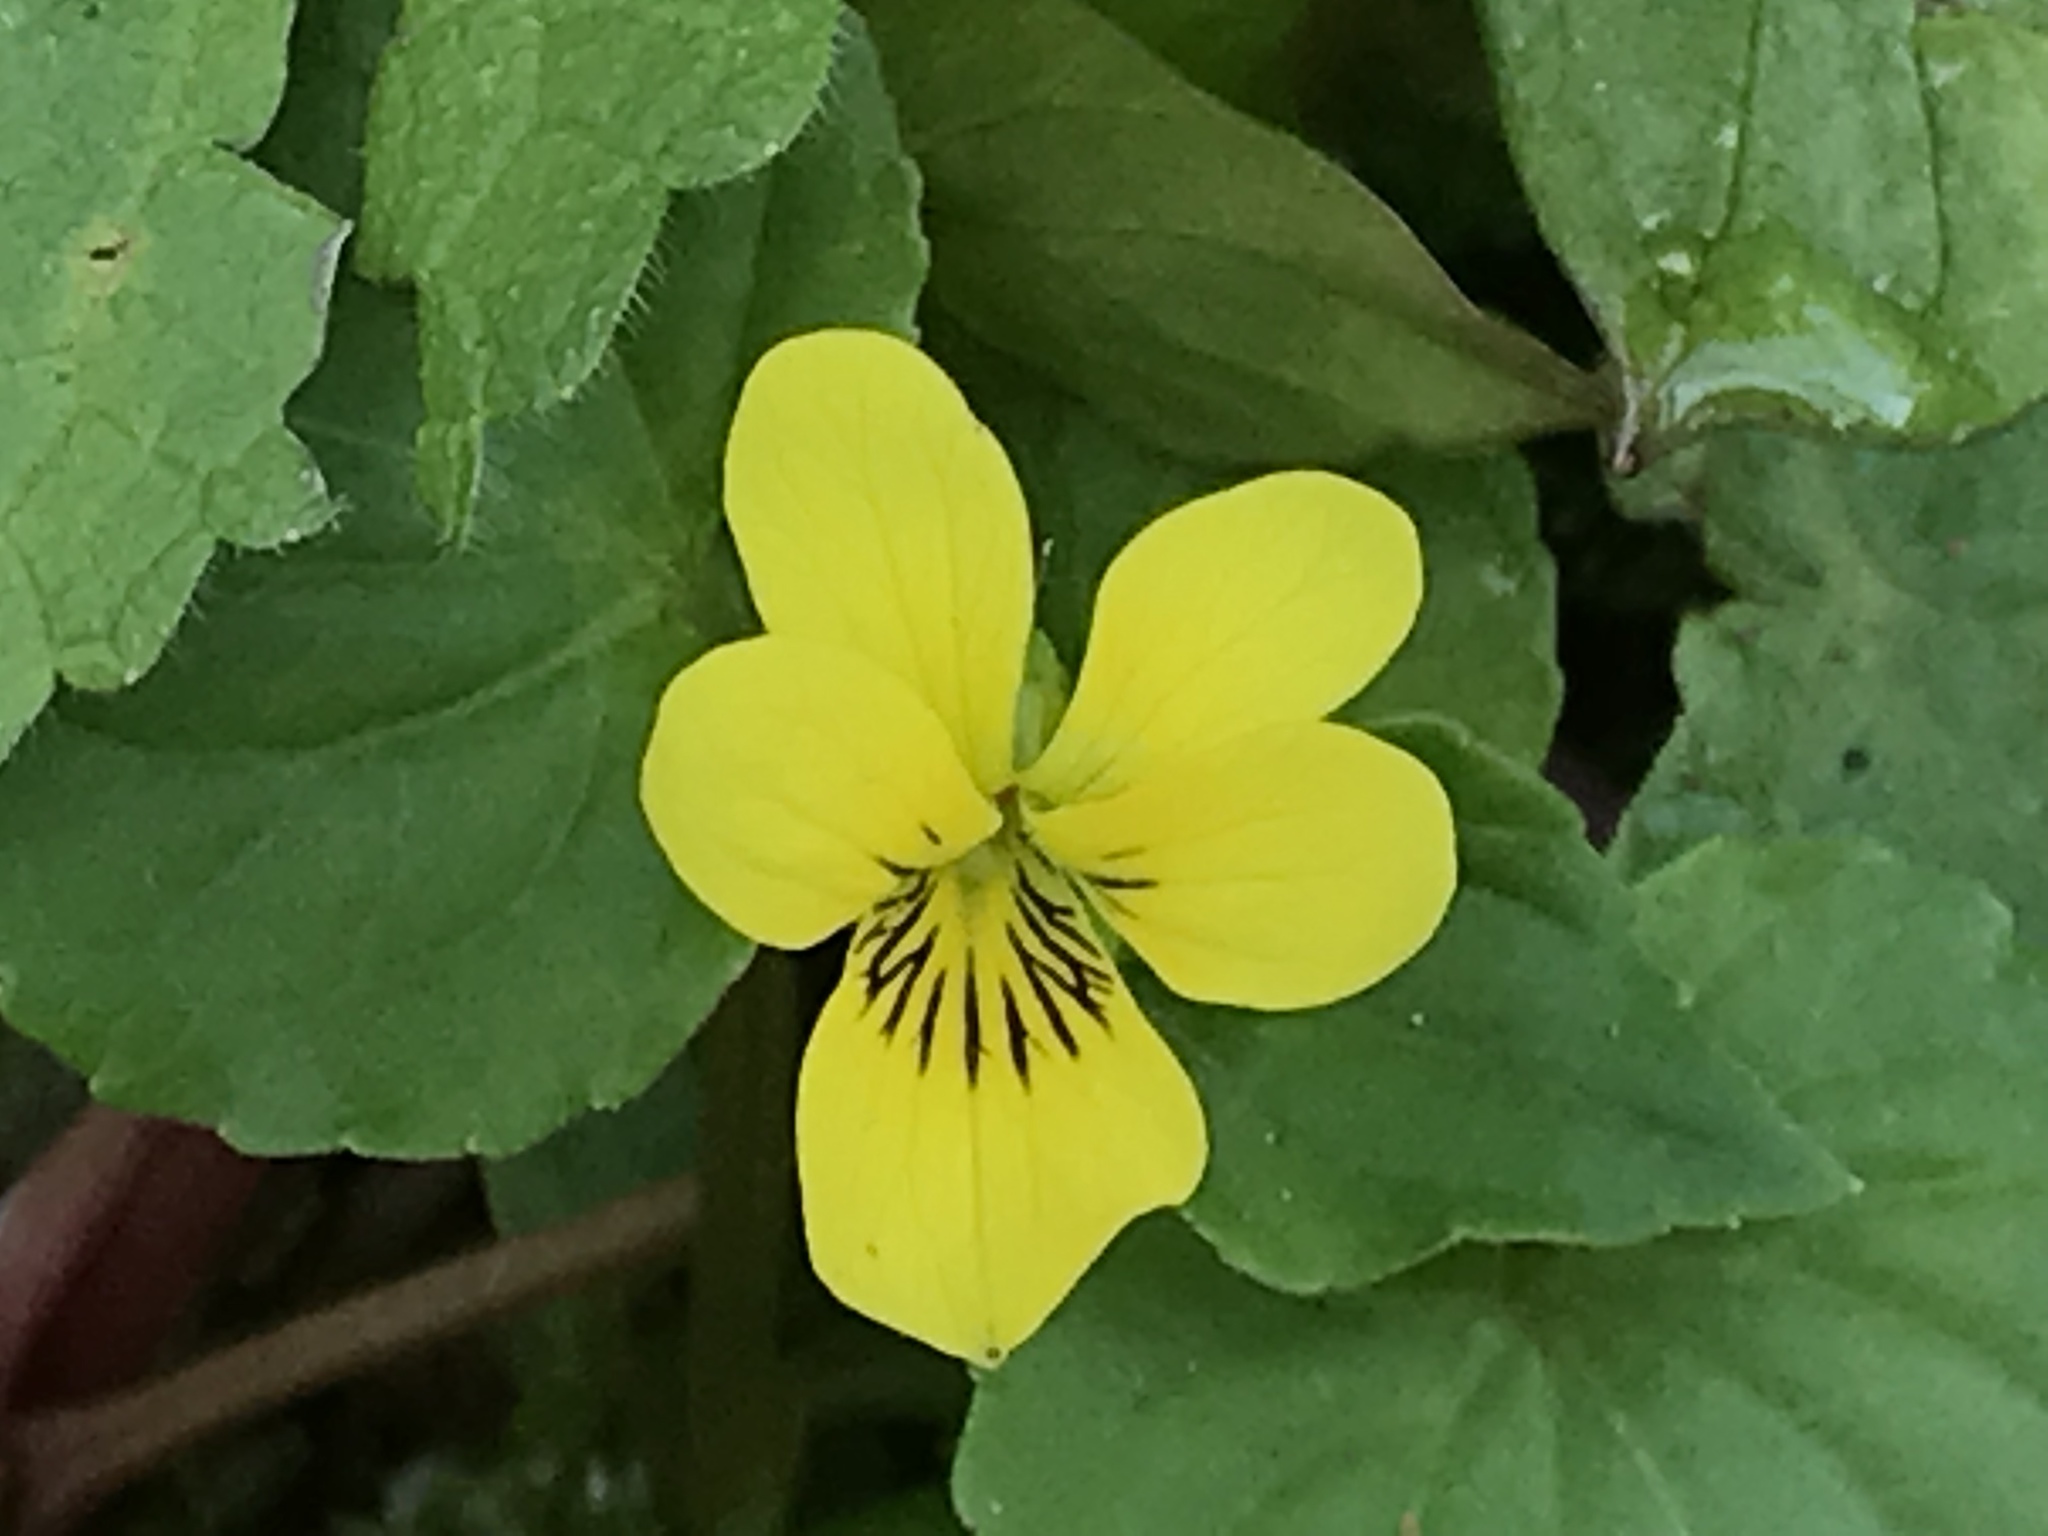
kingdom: Plantae
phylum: Tracheophyta
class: Magnoliopsida
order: Malpighiales
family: Violaceae
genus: Viola
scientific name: Viola glabella
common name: Stream violet
